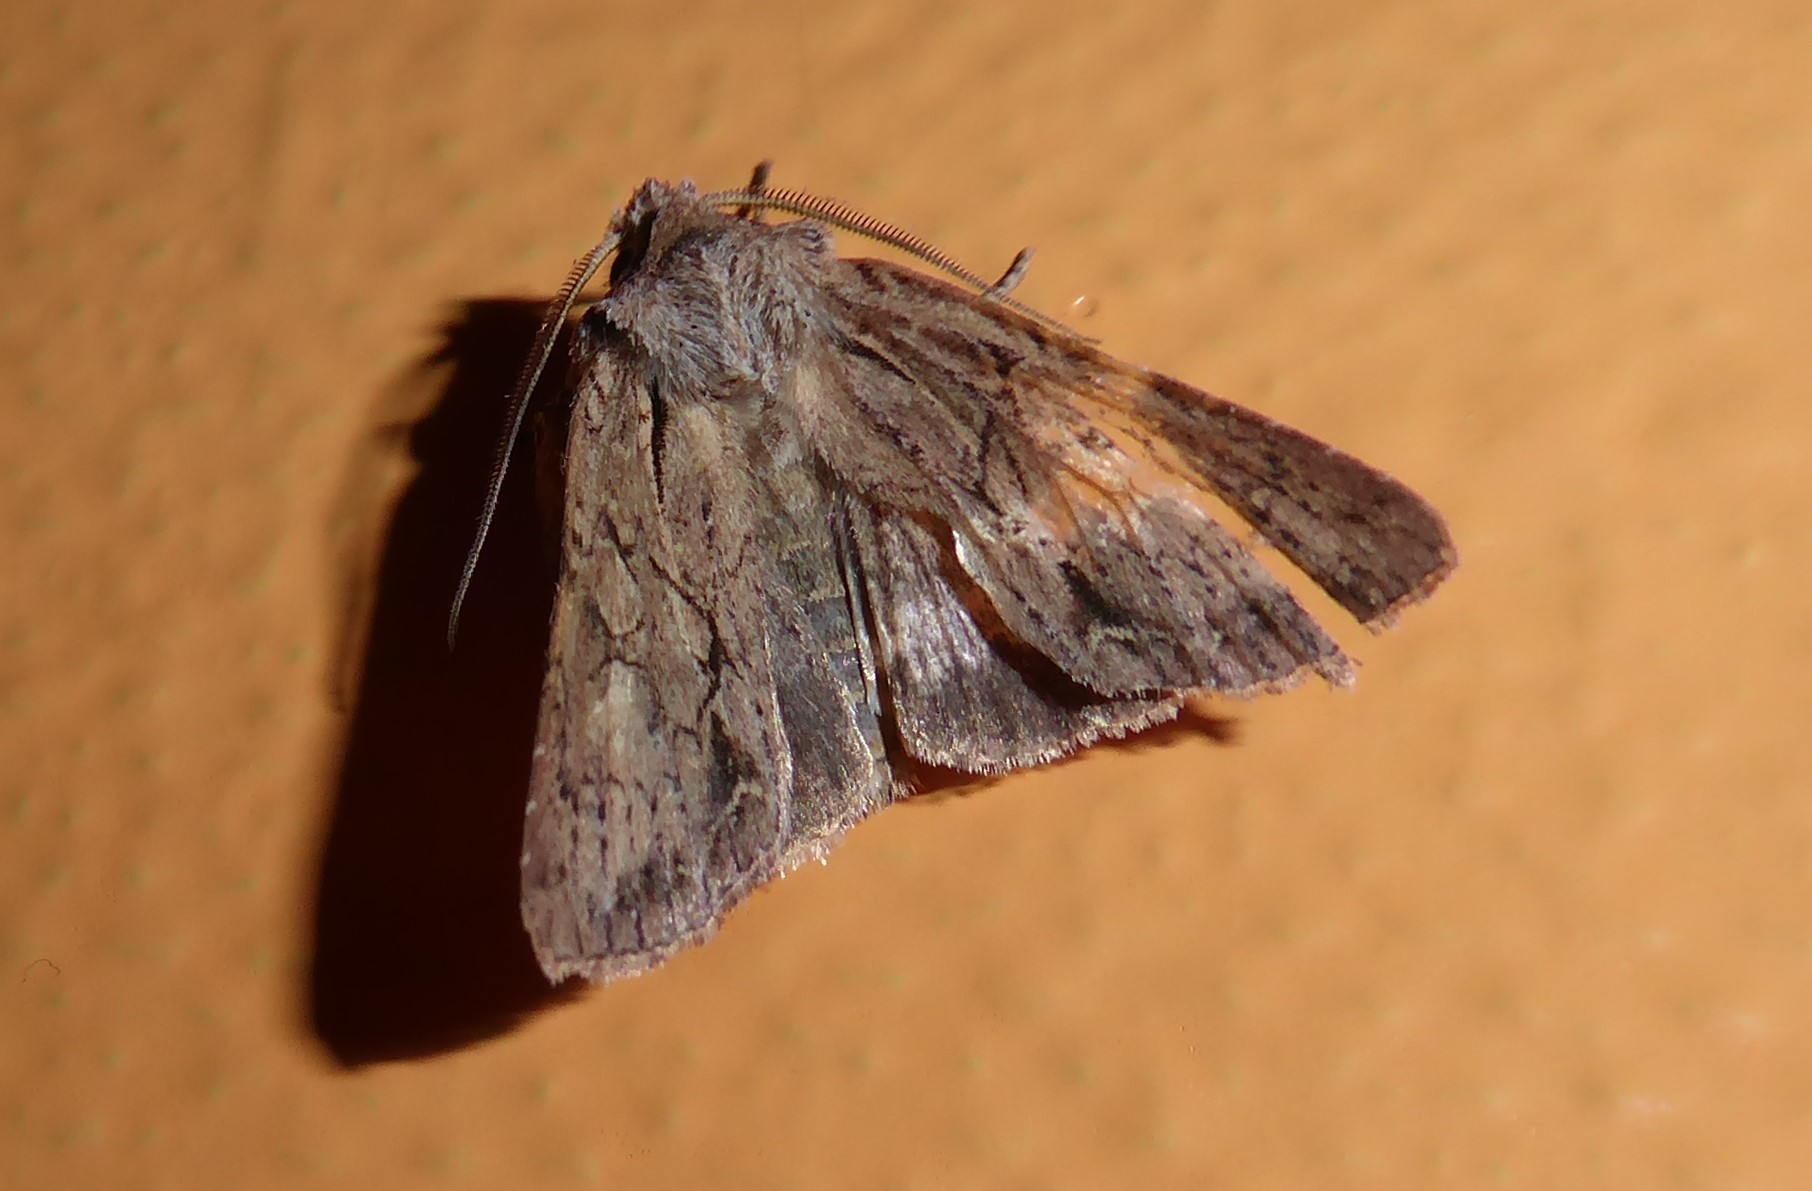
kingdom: Animalia
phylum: Arthropoda
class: Insecta
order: Lepidoptera
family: Noctuidae
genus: Ichneutica
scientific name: Ichneutica
